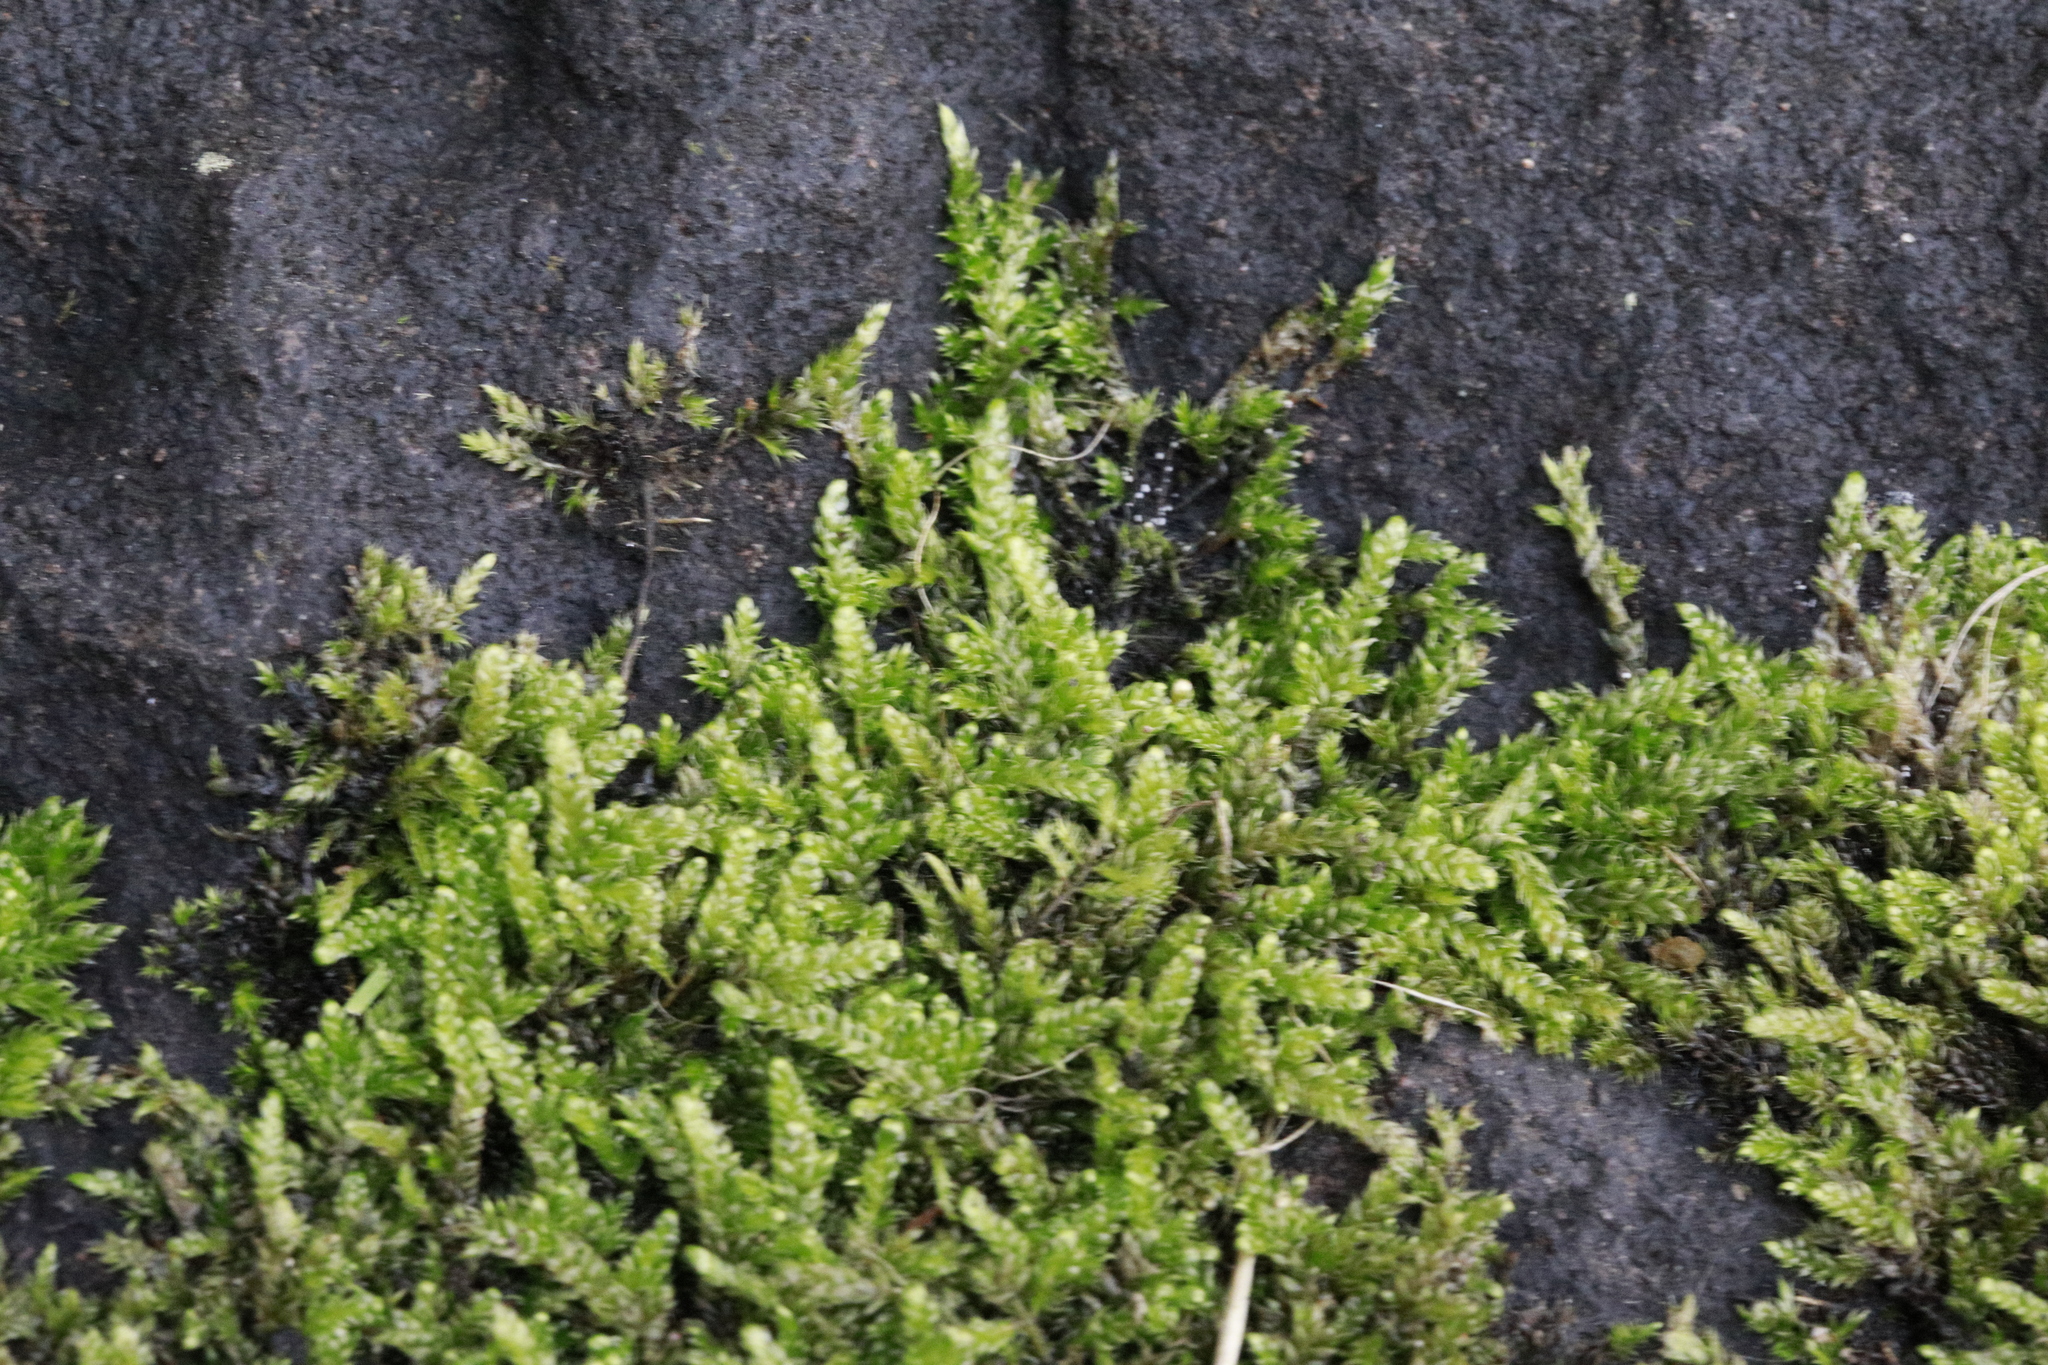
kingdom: Plantae
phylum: Bryophyta
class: Bryopsida
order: Hypnales
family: Hypnaceae
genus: Hypnum
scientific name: Hypnum cupressiforme
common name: Cypress-leaved plait-moss
